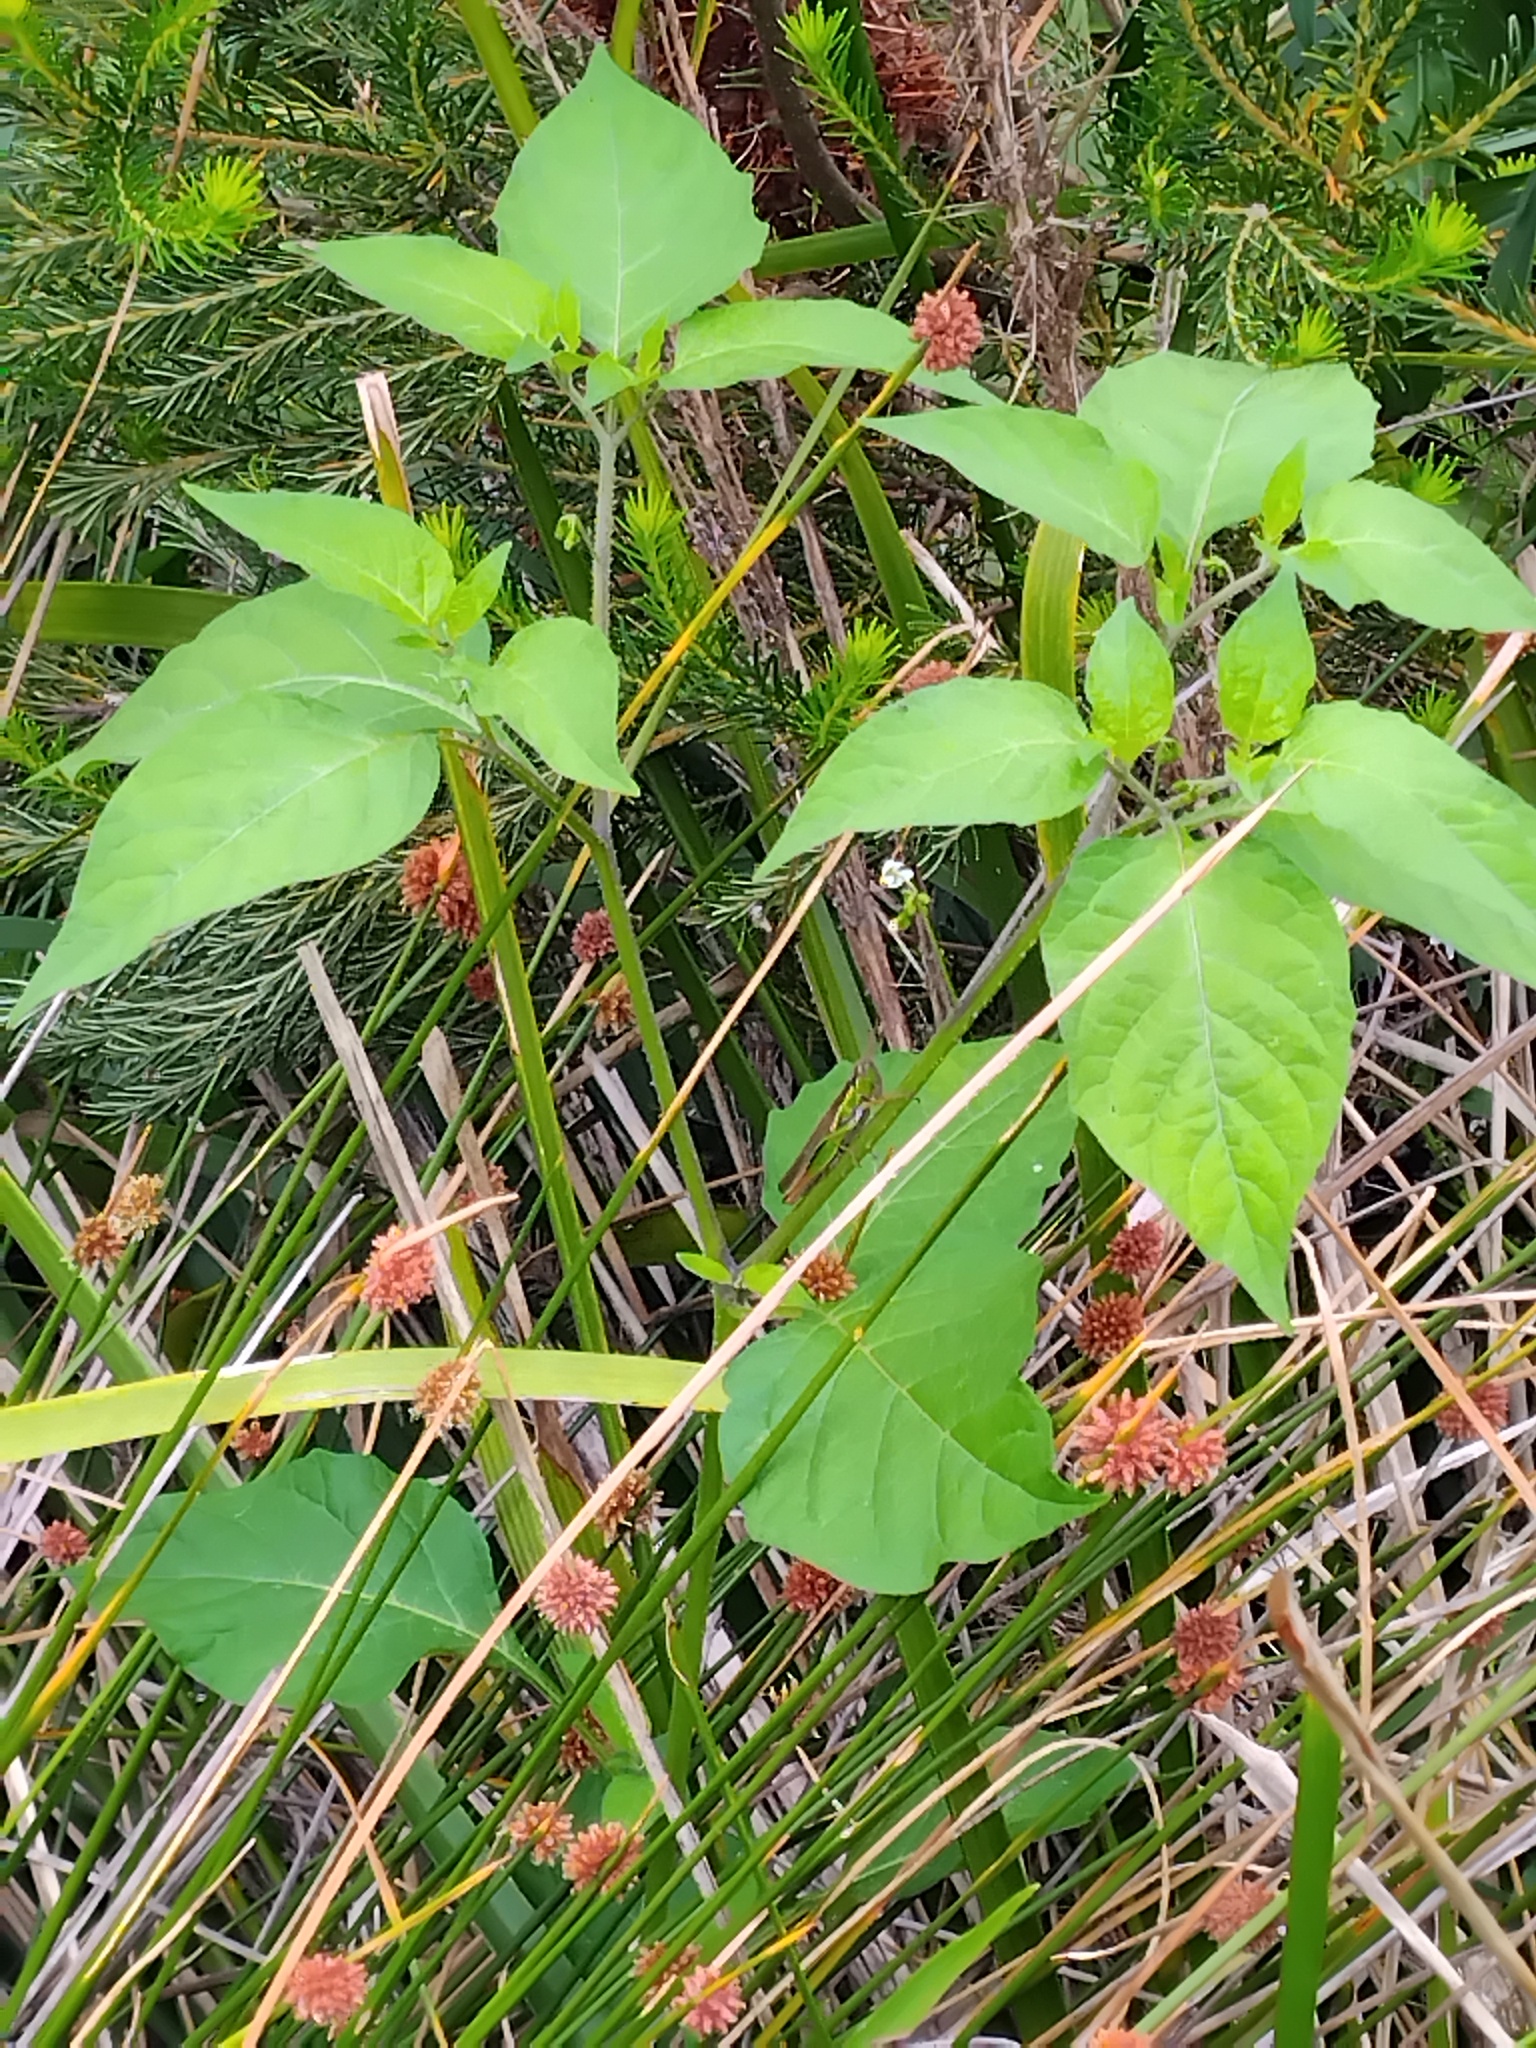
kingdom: Animalia
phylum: Arthropoda
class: Insecta
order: Orthoptera
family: Acrididae
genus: Bermius
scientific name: Bermius brachycerus
